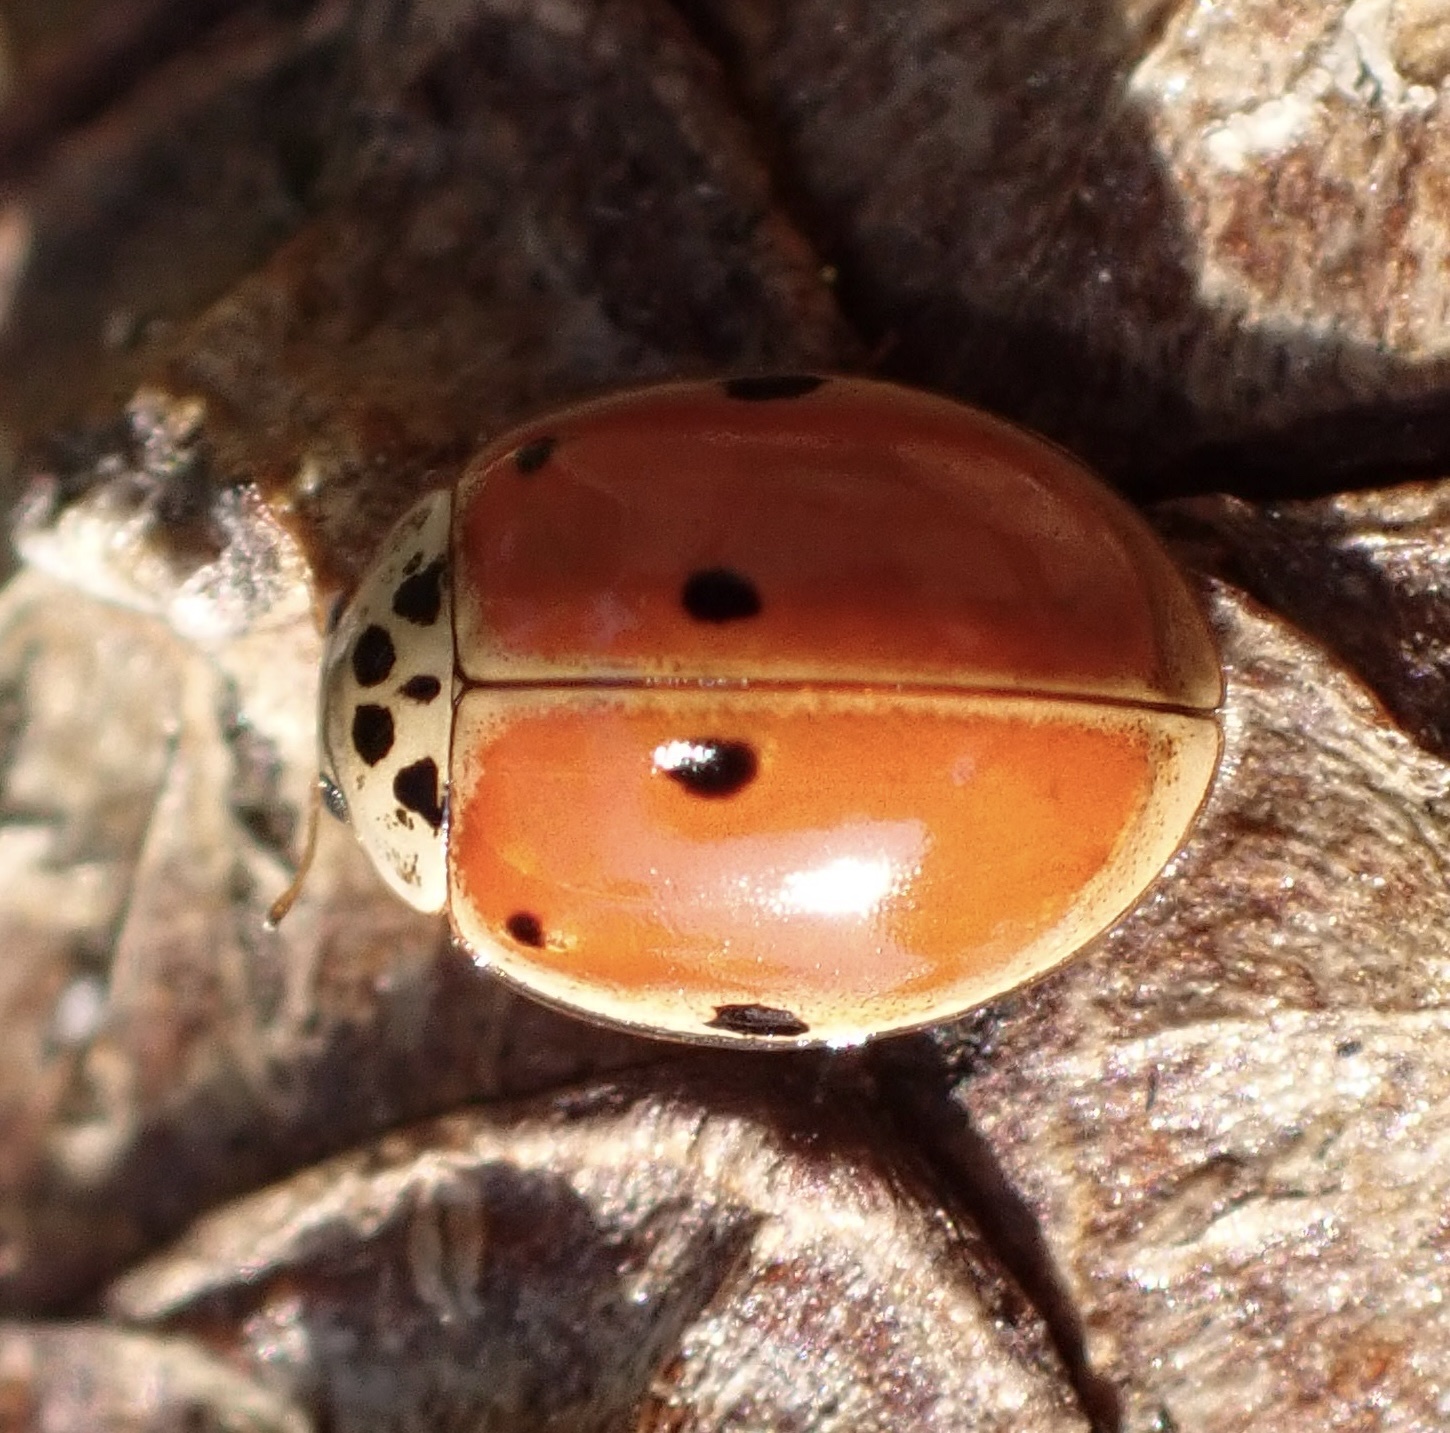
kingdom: Animalia
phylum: Arthropoda
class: Insecta
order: Coleoptera
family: Coccinellidae
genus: Adalia
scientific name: Adalia decempunctata
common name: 10-spot ladybird
